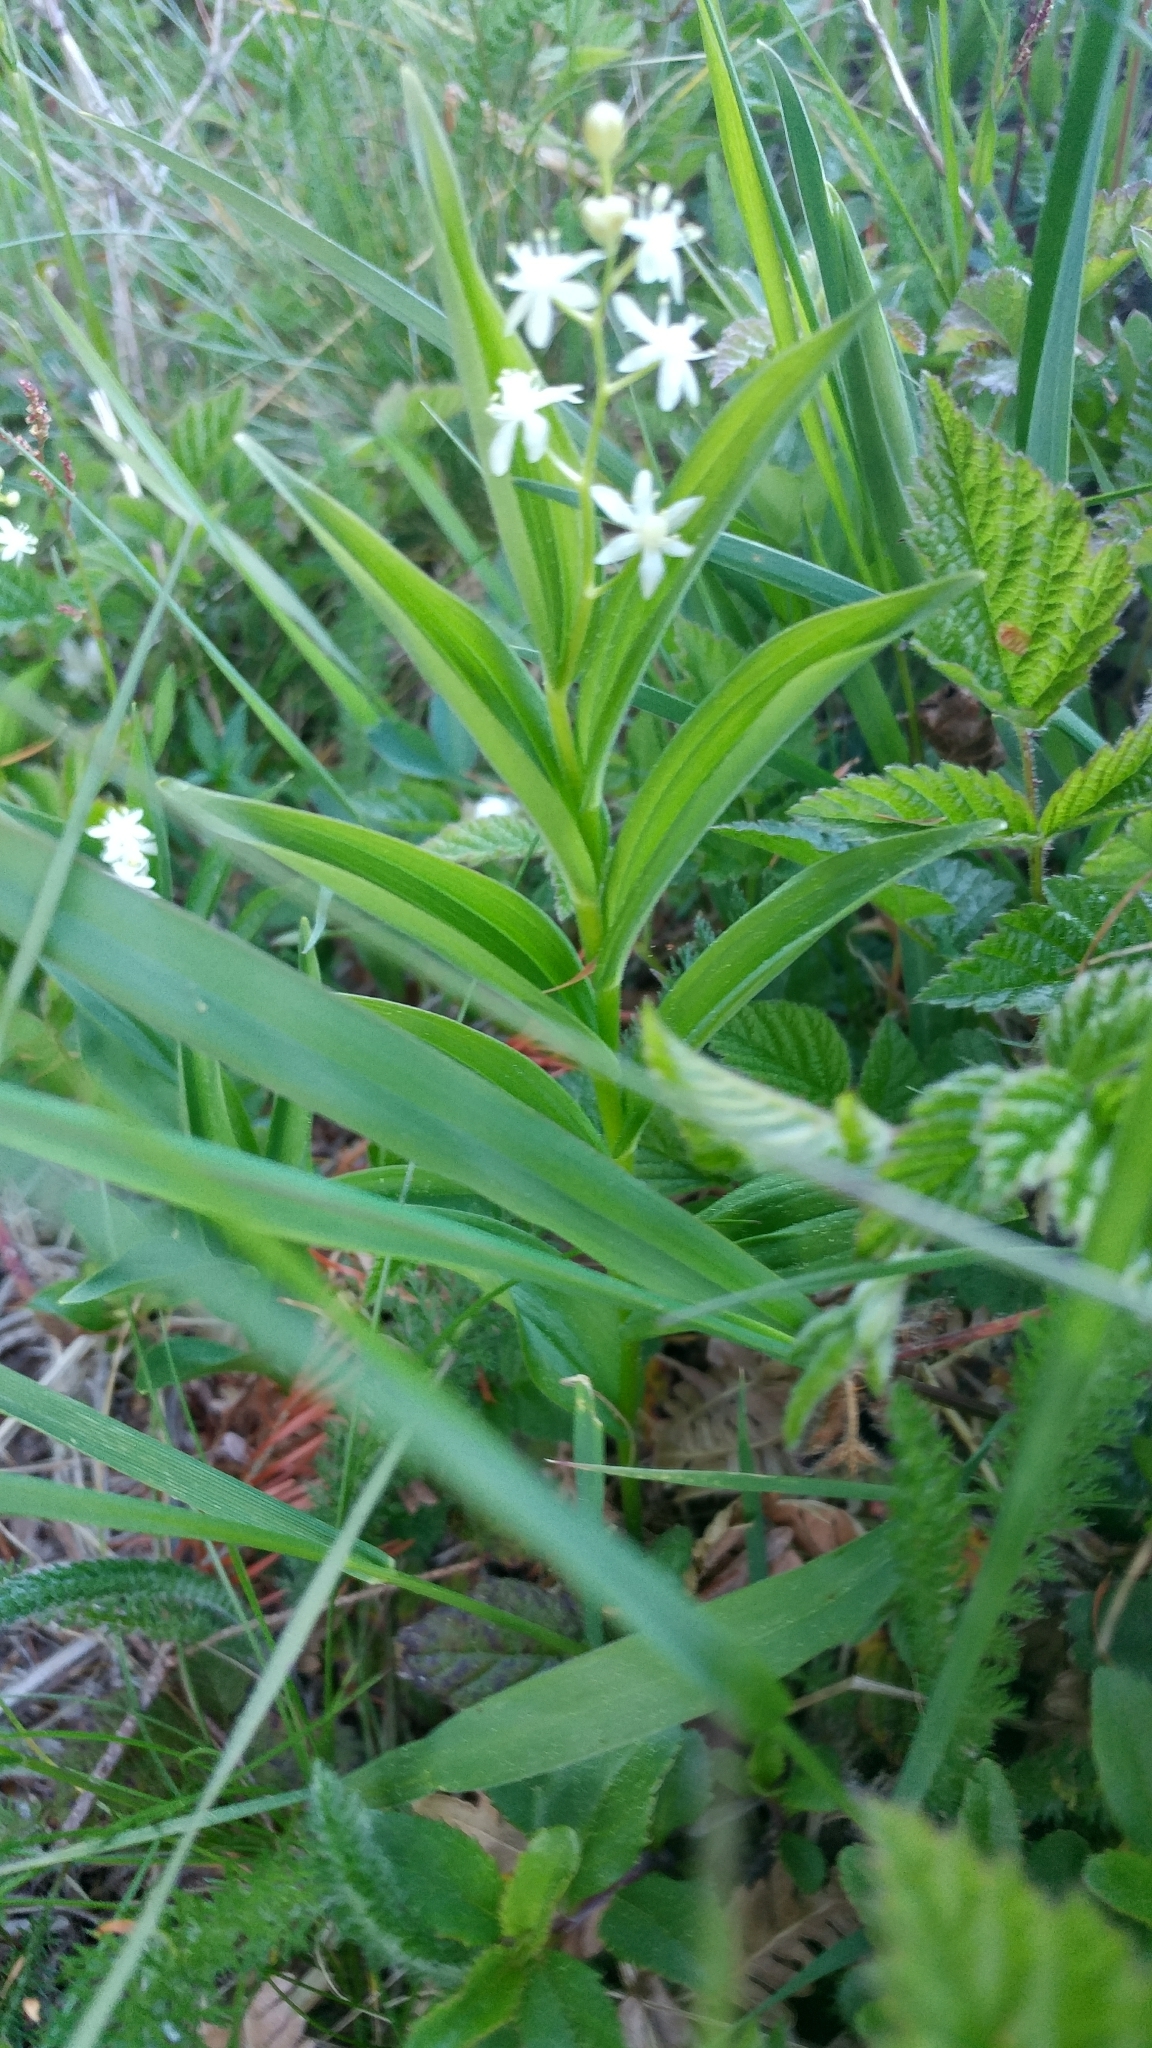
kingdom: Plantae
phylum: Tracheophyta
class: Liliopsida
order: Asparagales
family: Asparagaceae
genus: Maianthemum
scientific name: Maianthemum stellatum
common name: Little false solomon's seal
